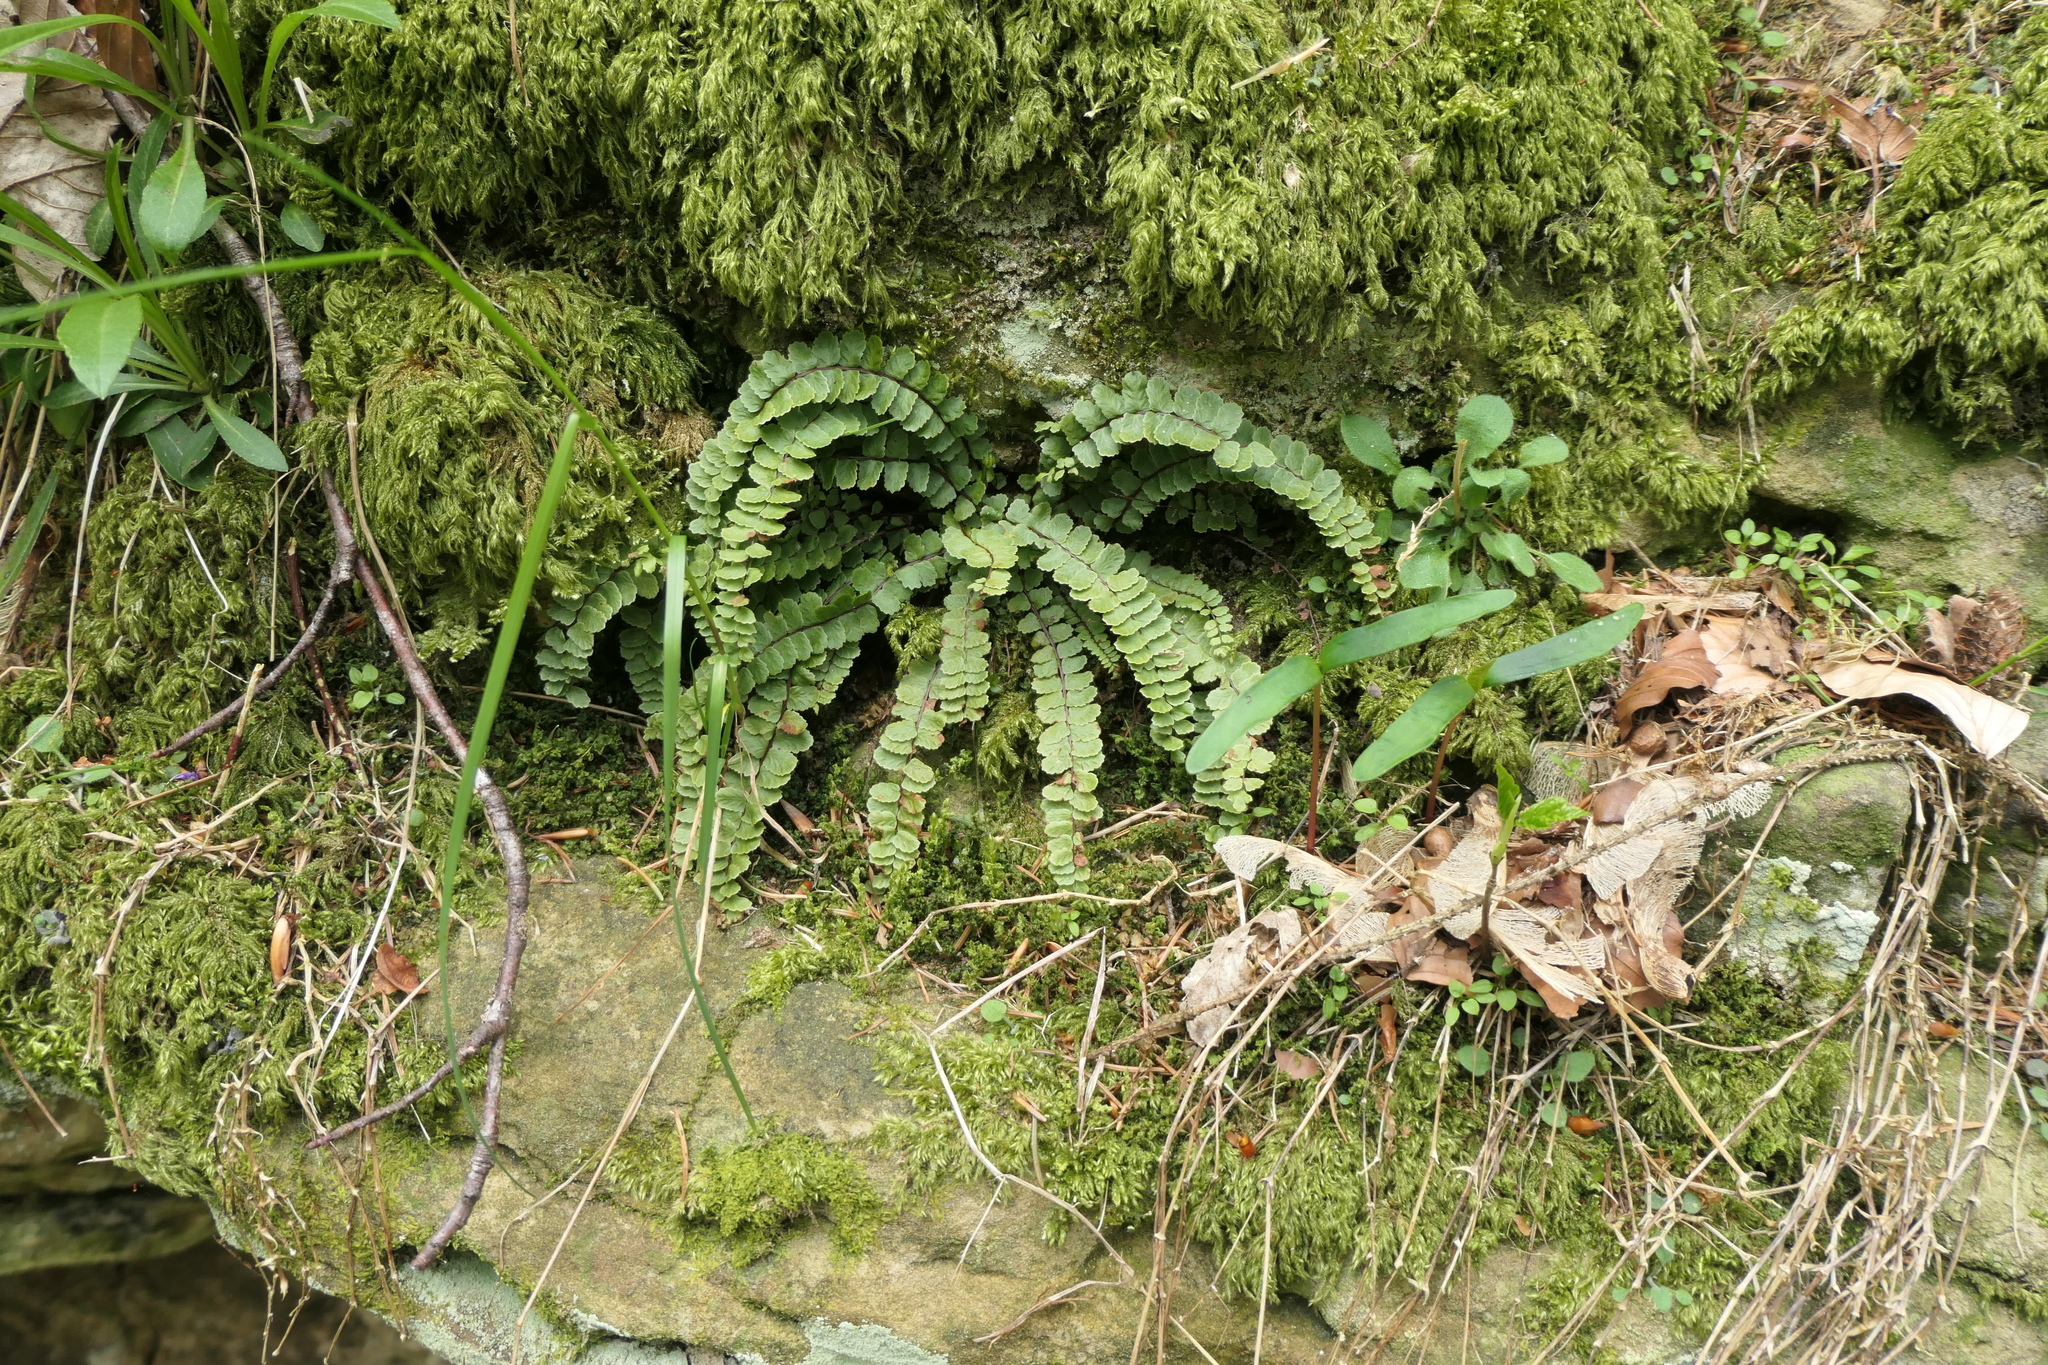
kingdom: Plantae
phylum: Tracheophyta
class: Polypodiopsida
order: Polypodiales
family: Aspleniaceae
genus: Asplenium
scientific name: Asplenium csikii
